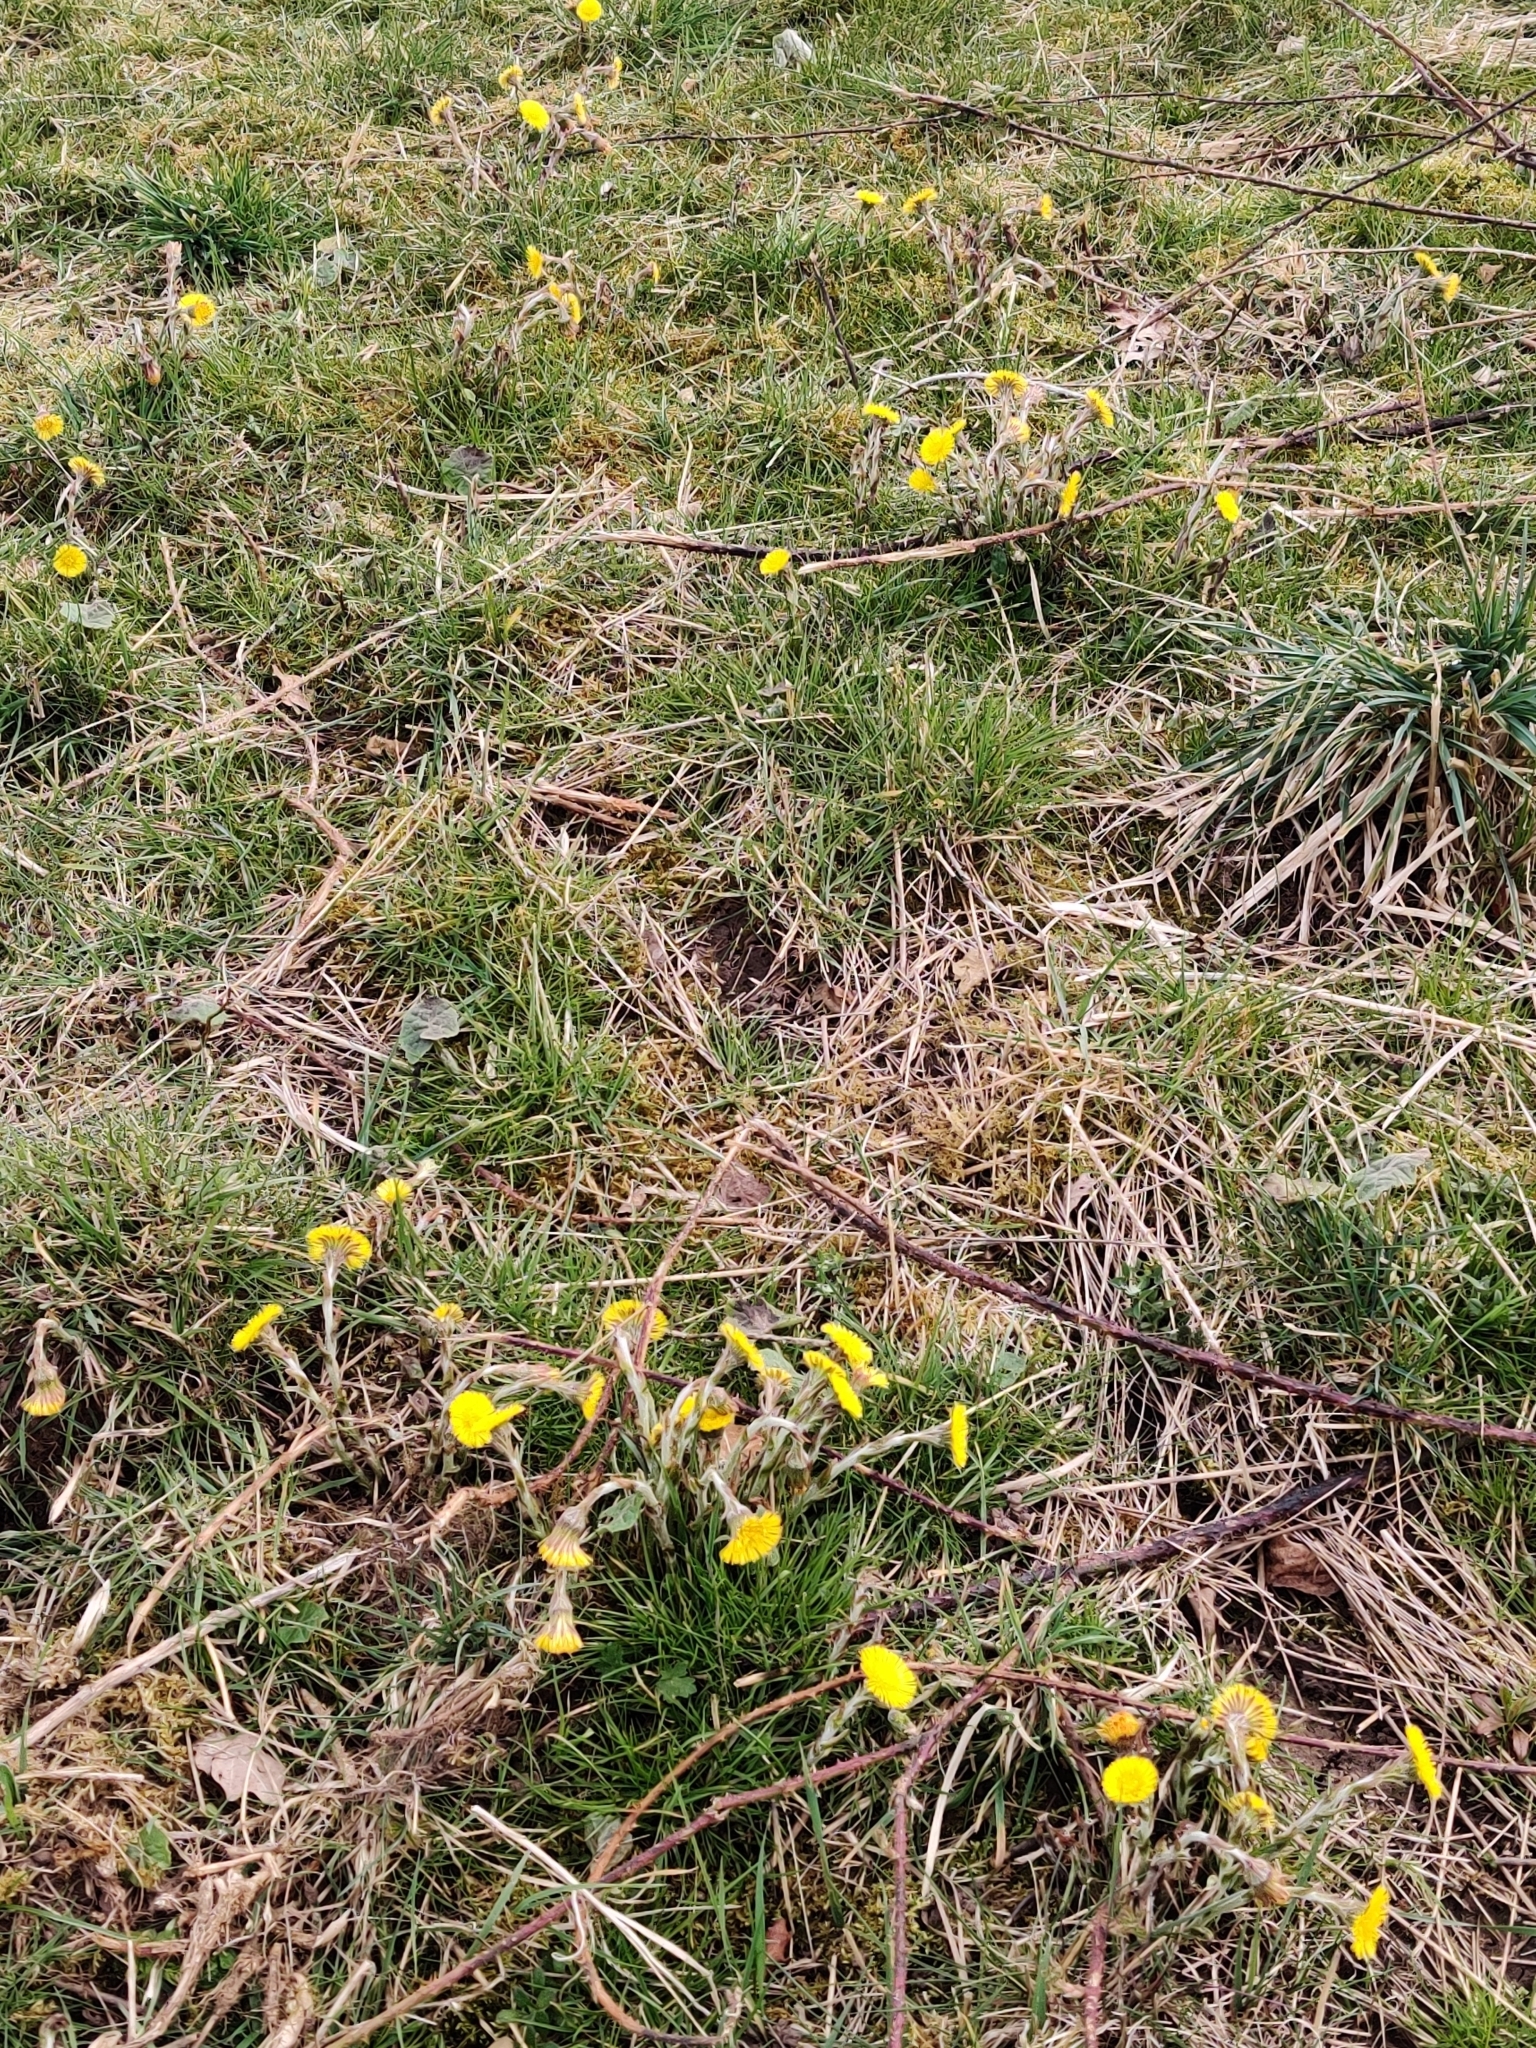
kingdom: Plantae
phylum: Tracheophyta
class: Magnoliopsida
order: Asterales
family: Asteraceae
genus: Tussilago
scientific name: Tussilago farfara
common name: Coltsfoot
